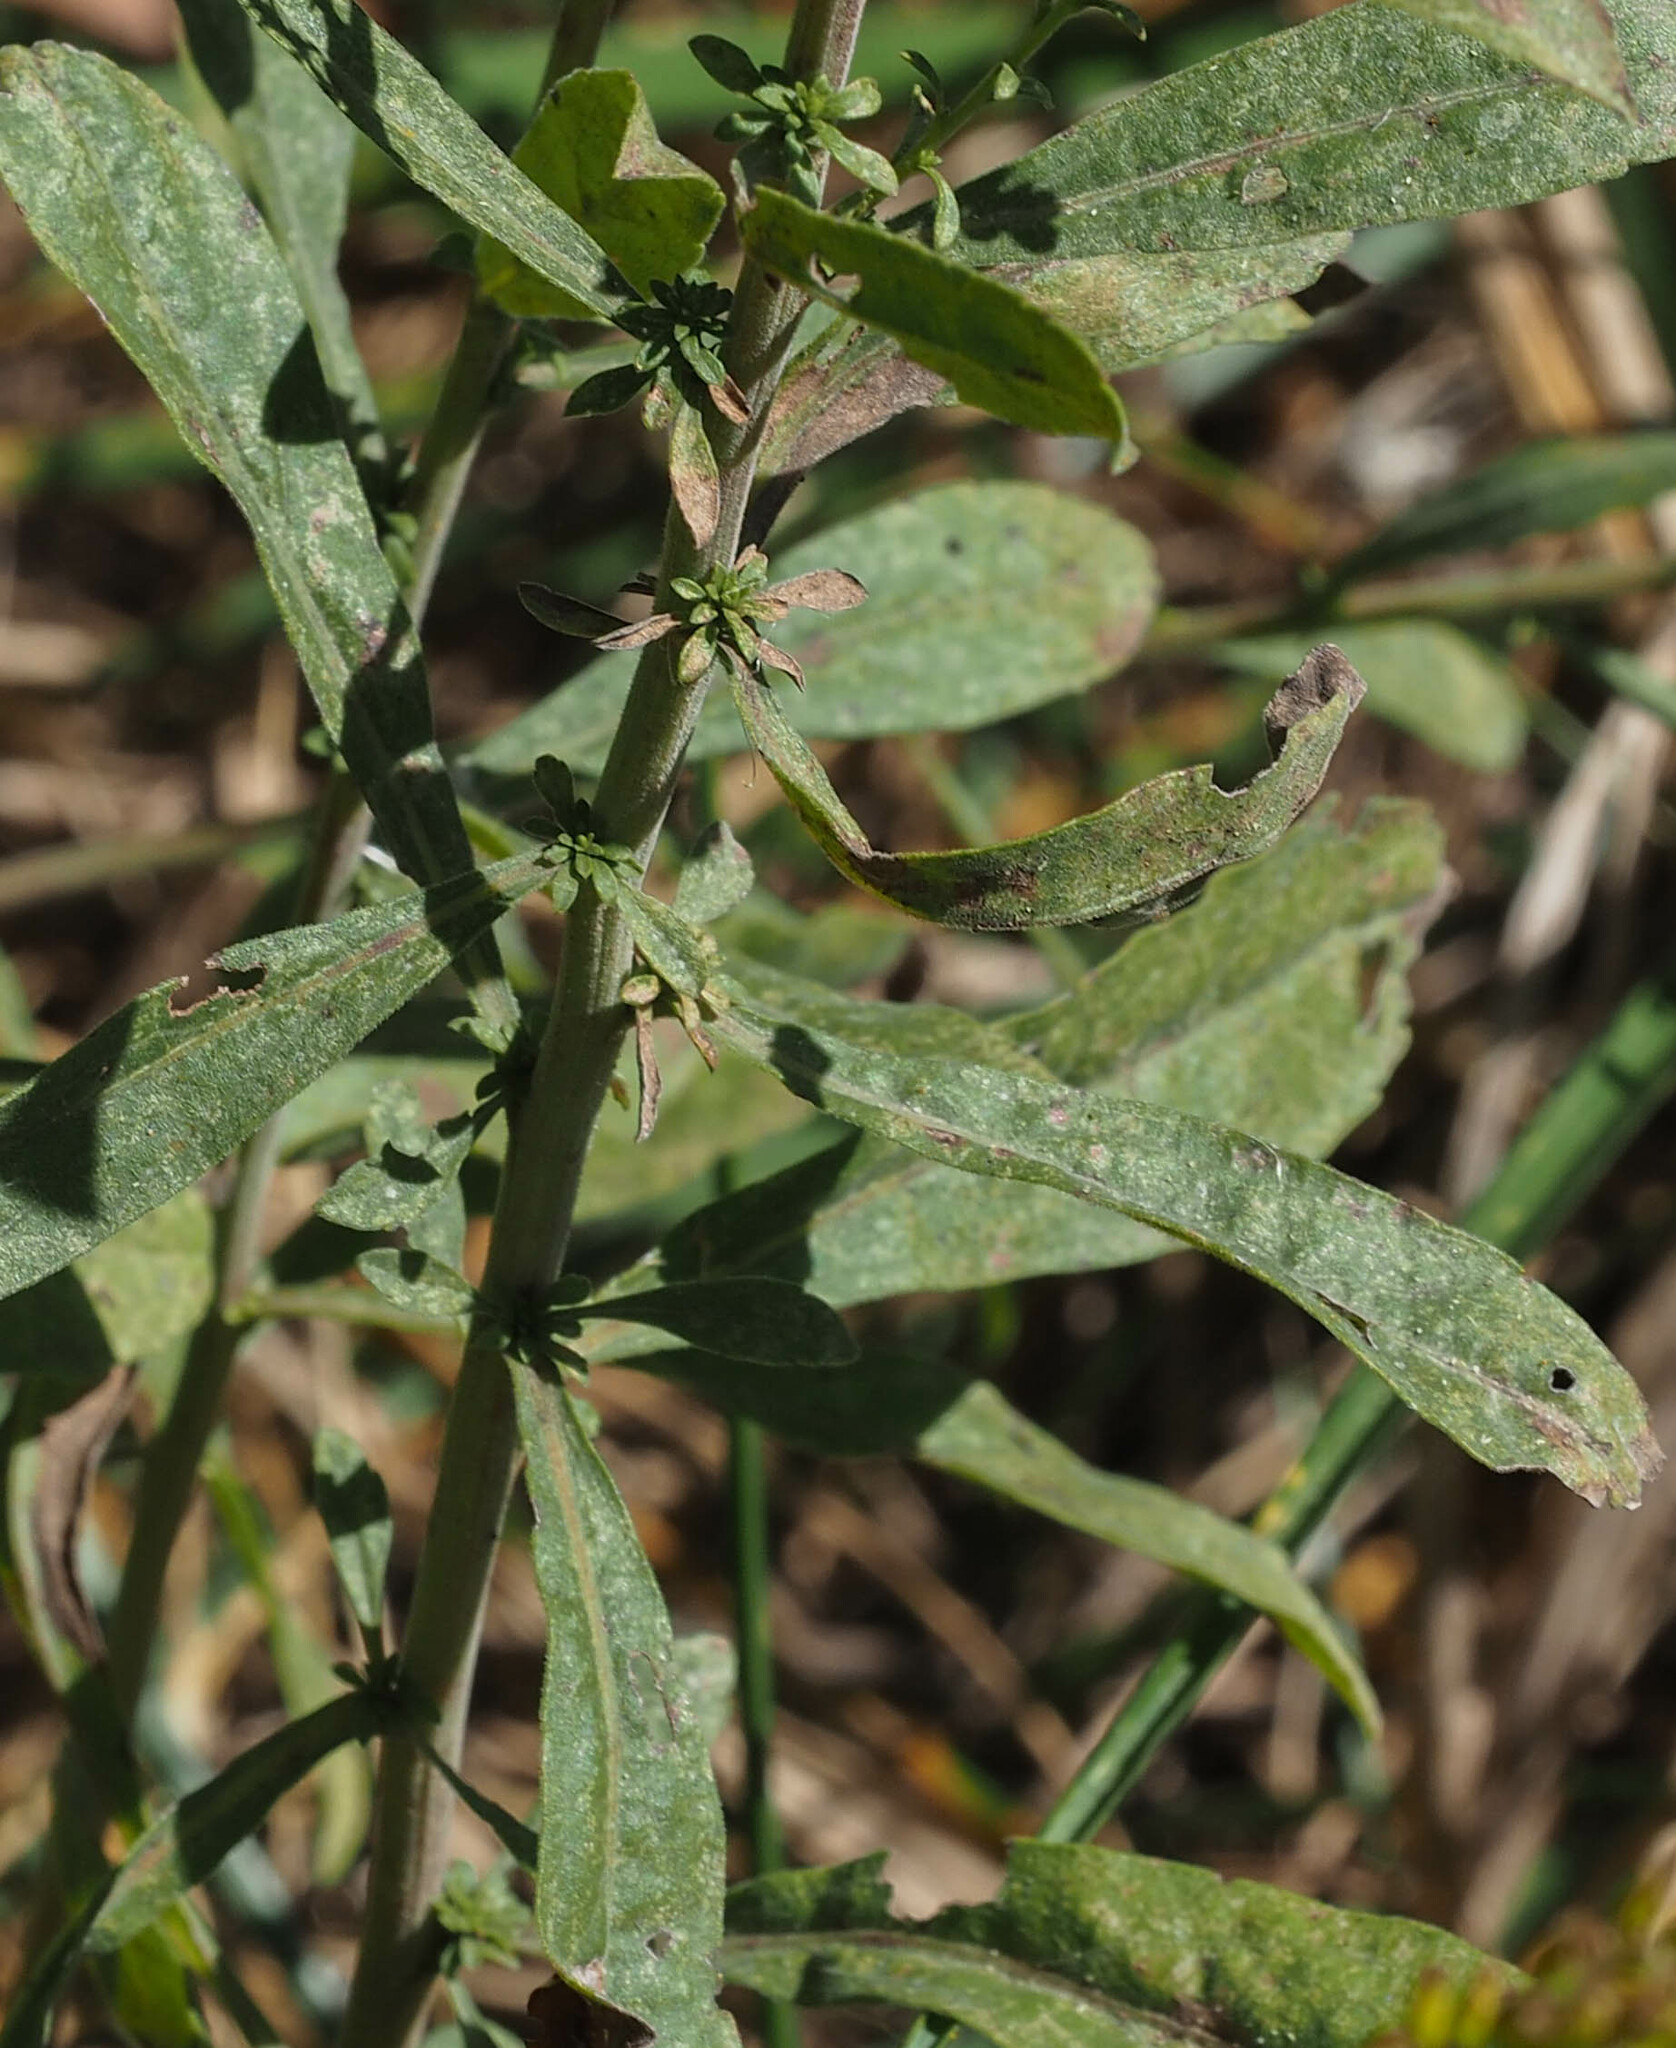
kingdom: Plantae
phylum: Tracheophyta
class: Magnoliopsida
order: Asterales
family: Asteraceae
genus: Solidago
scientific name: Solidago nemoralis
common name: Grey goldenrod
